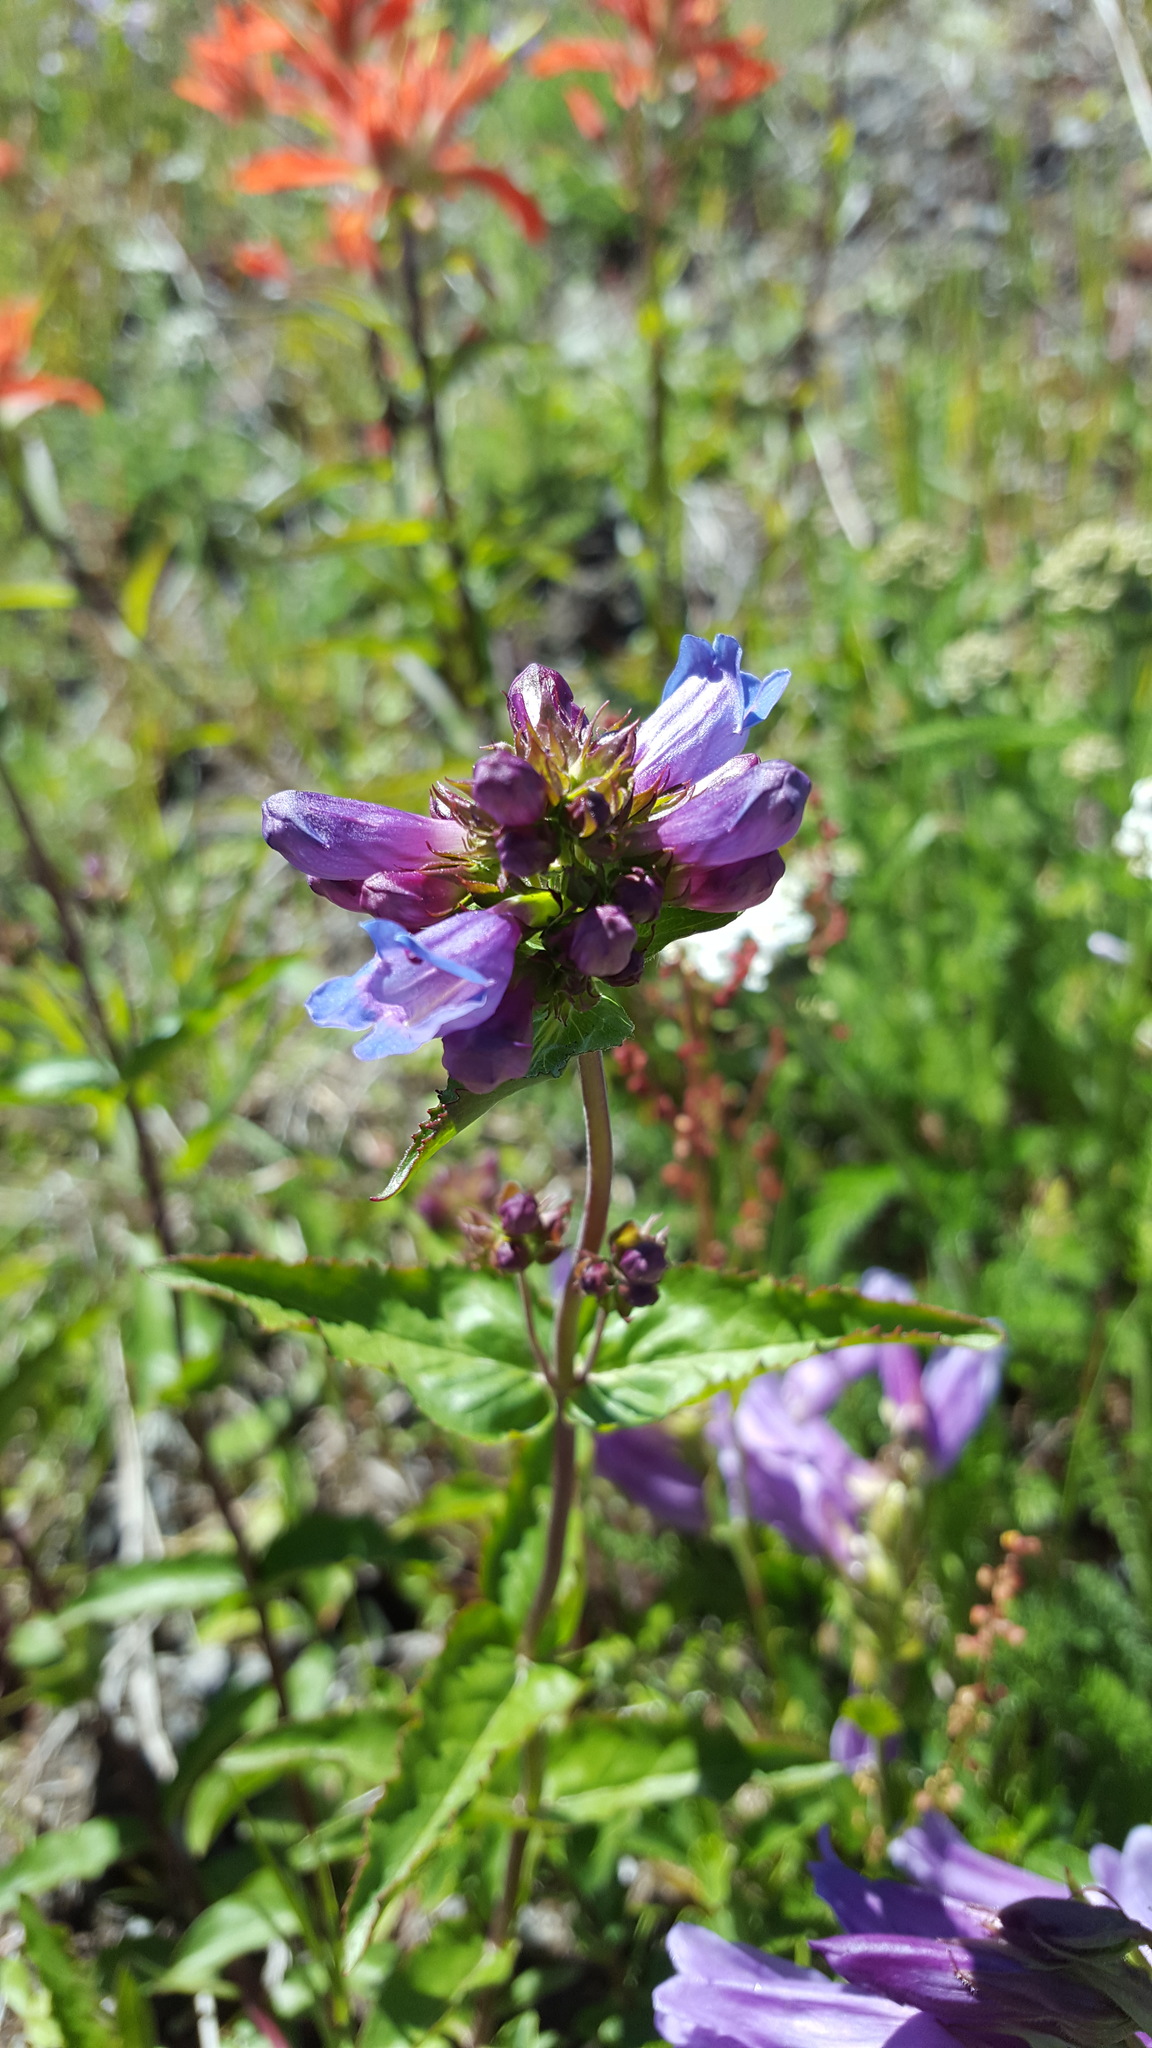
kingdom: Plantae
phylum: Tracheophyta
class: Magnoliopsida
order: Lamiales
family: Plantaginaceae
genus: Penstemon
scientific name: Penstemon serrulatus
